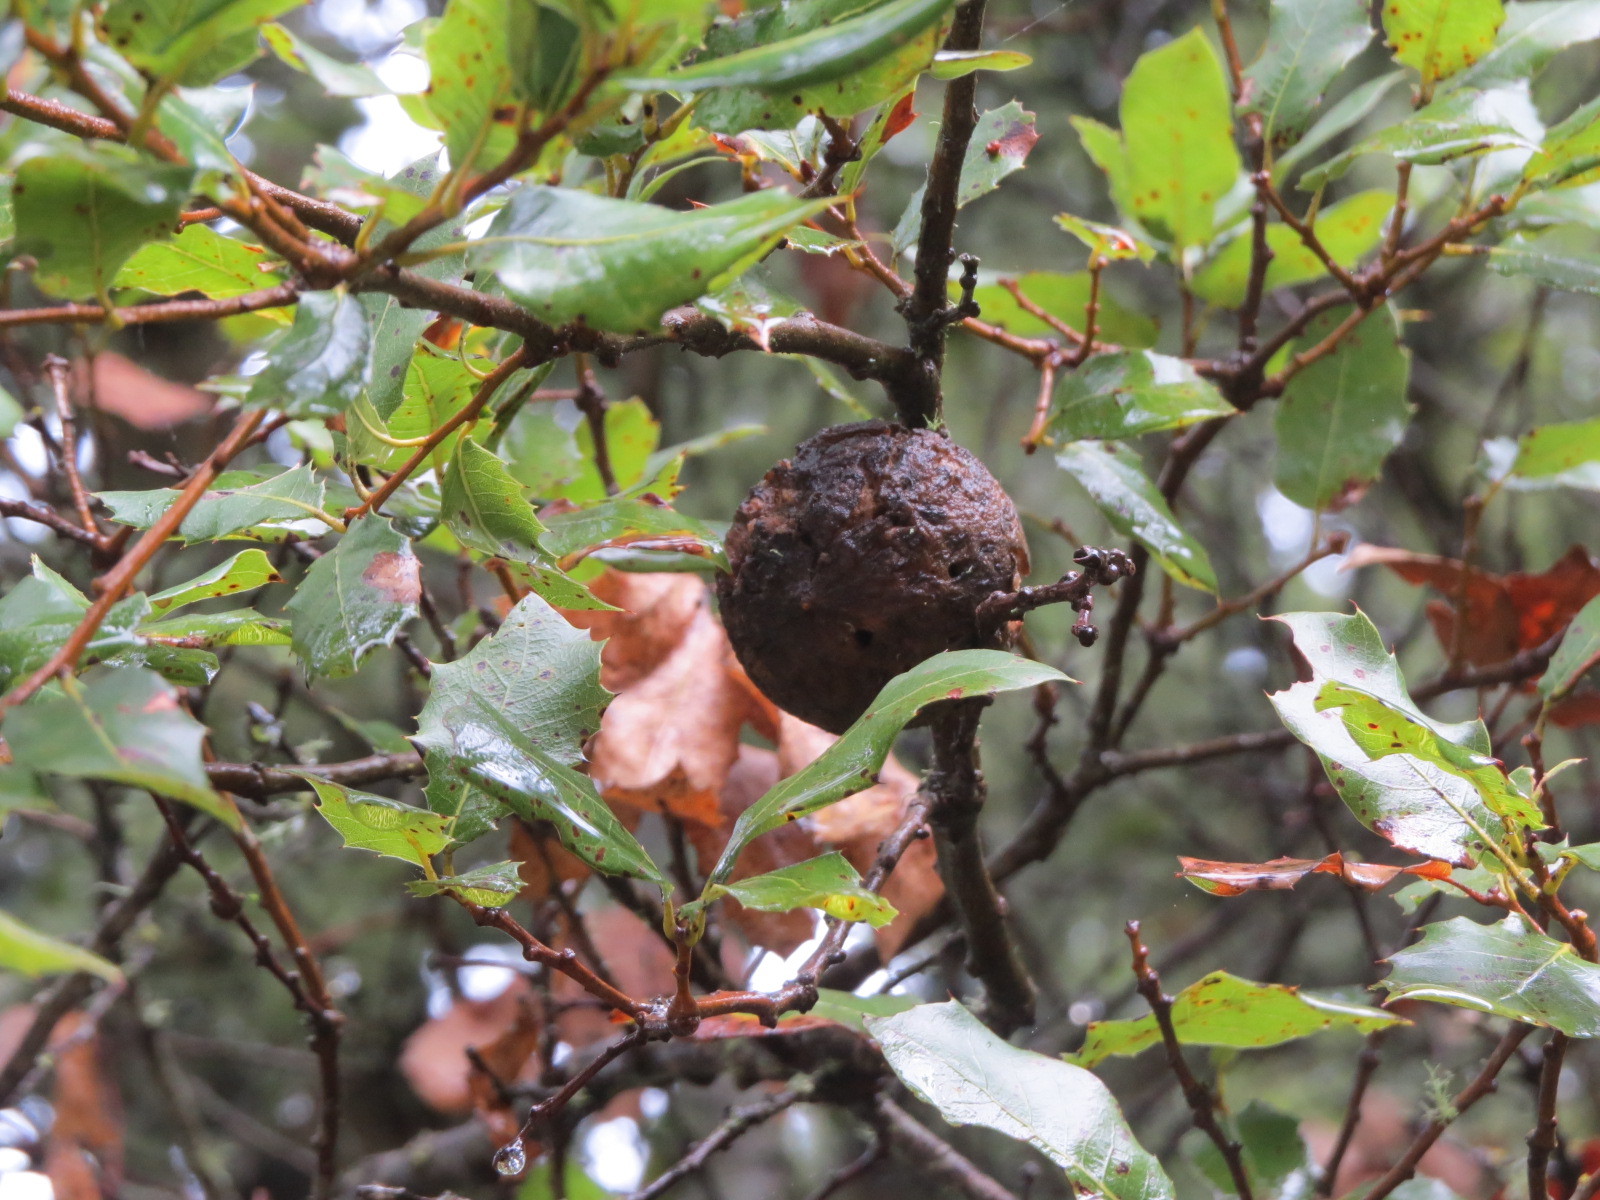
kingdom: Animalia
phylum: Arthropoda
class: Insecta
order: Hymenoptera
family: Cynipidae
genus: Amphibolips
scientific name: Amphibolips quercuspomiformis
